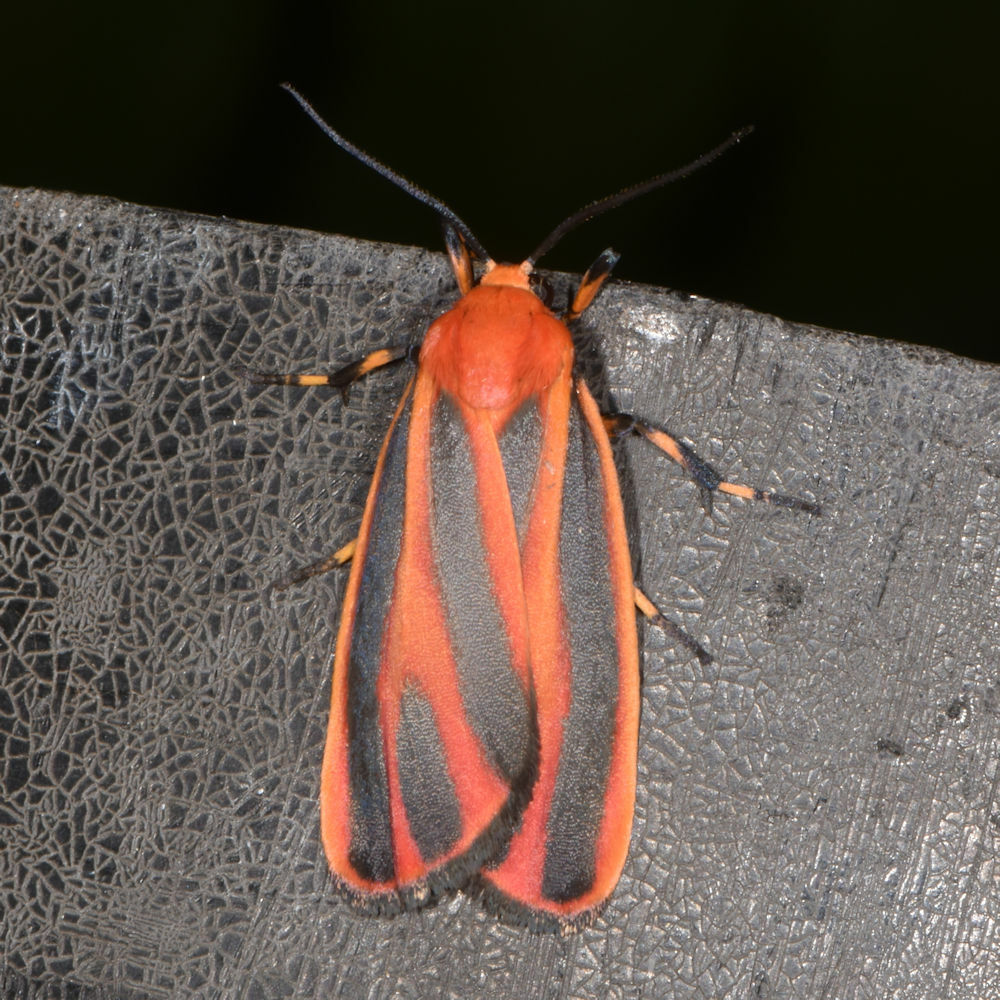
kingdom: Animalia
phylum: Arthropoda
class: Insecta
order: Lepidoptera
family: Erebidae
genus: Hypoprepia
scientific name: Hypoprepia miniata
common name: Scarlet-winged lichen moth
